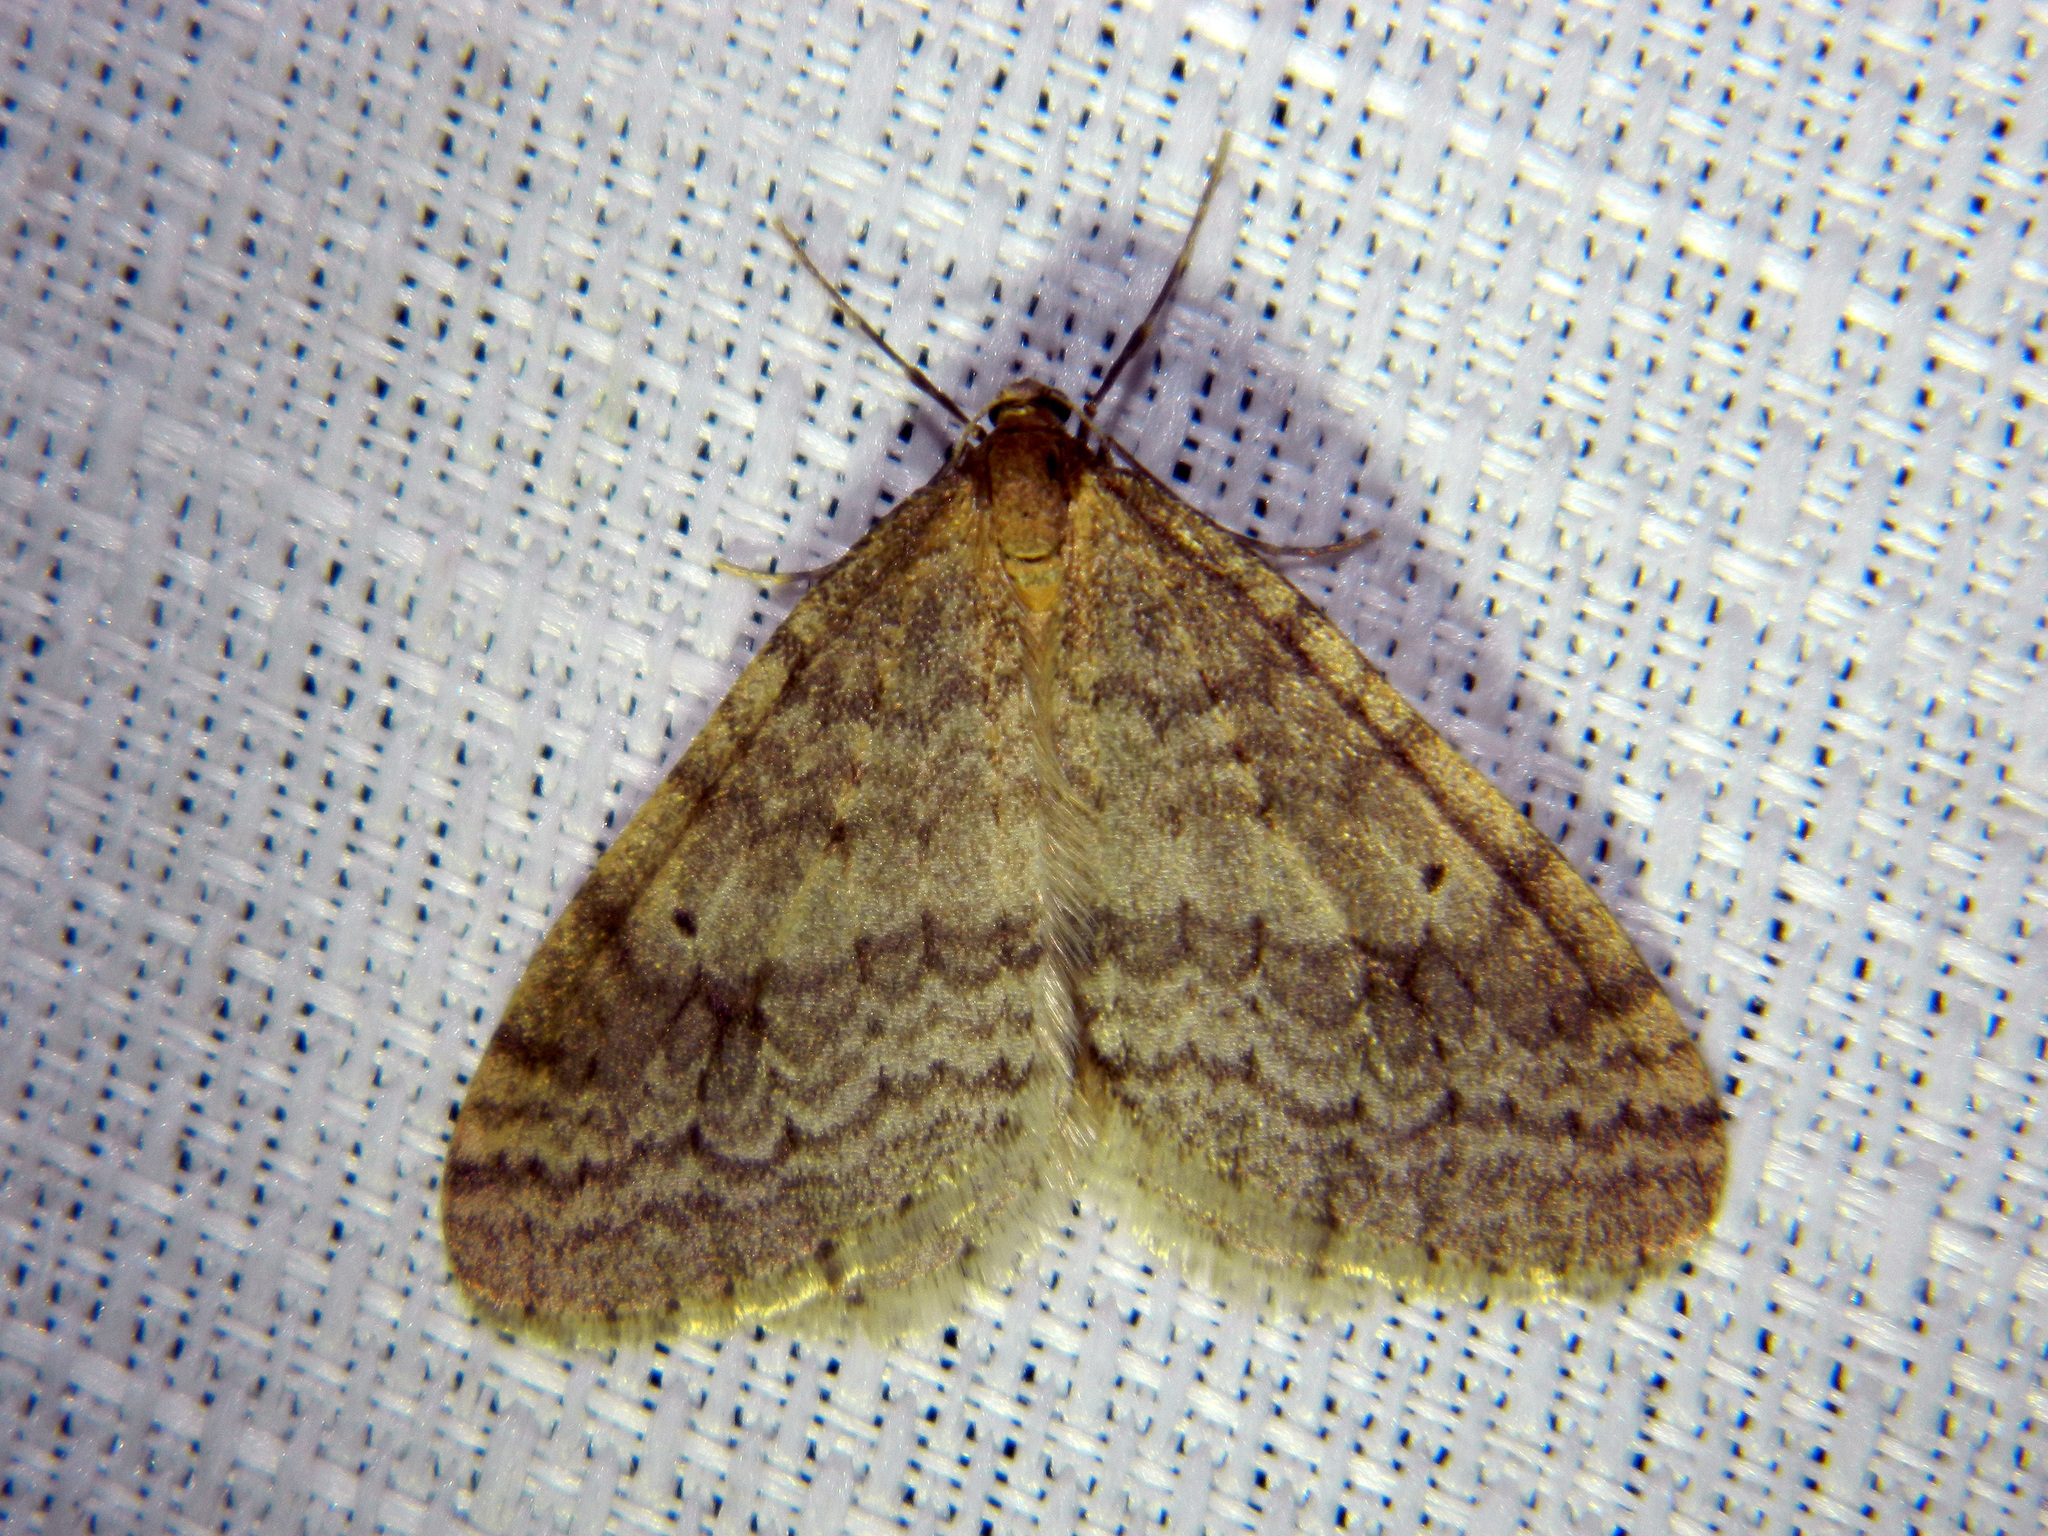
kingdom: Animalia
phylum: Arthropoda
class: Insecta
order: Lepidoptera
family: Geometridae
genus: Operophtera
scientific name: Operophtera bruceata
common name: Bruce spanworm
